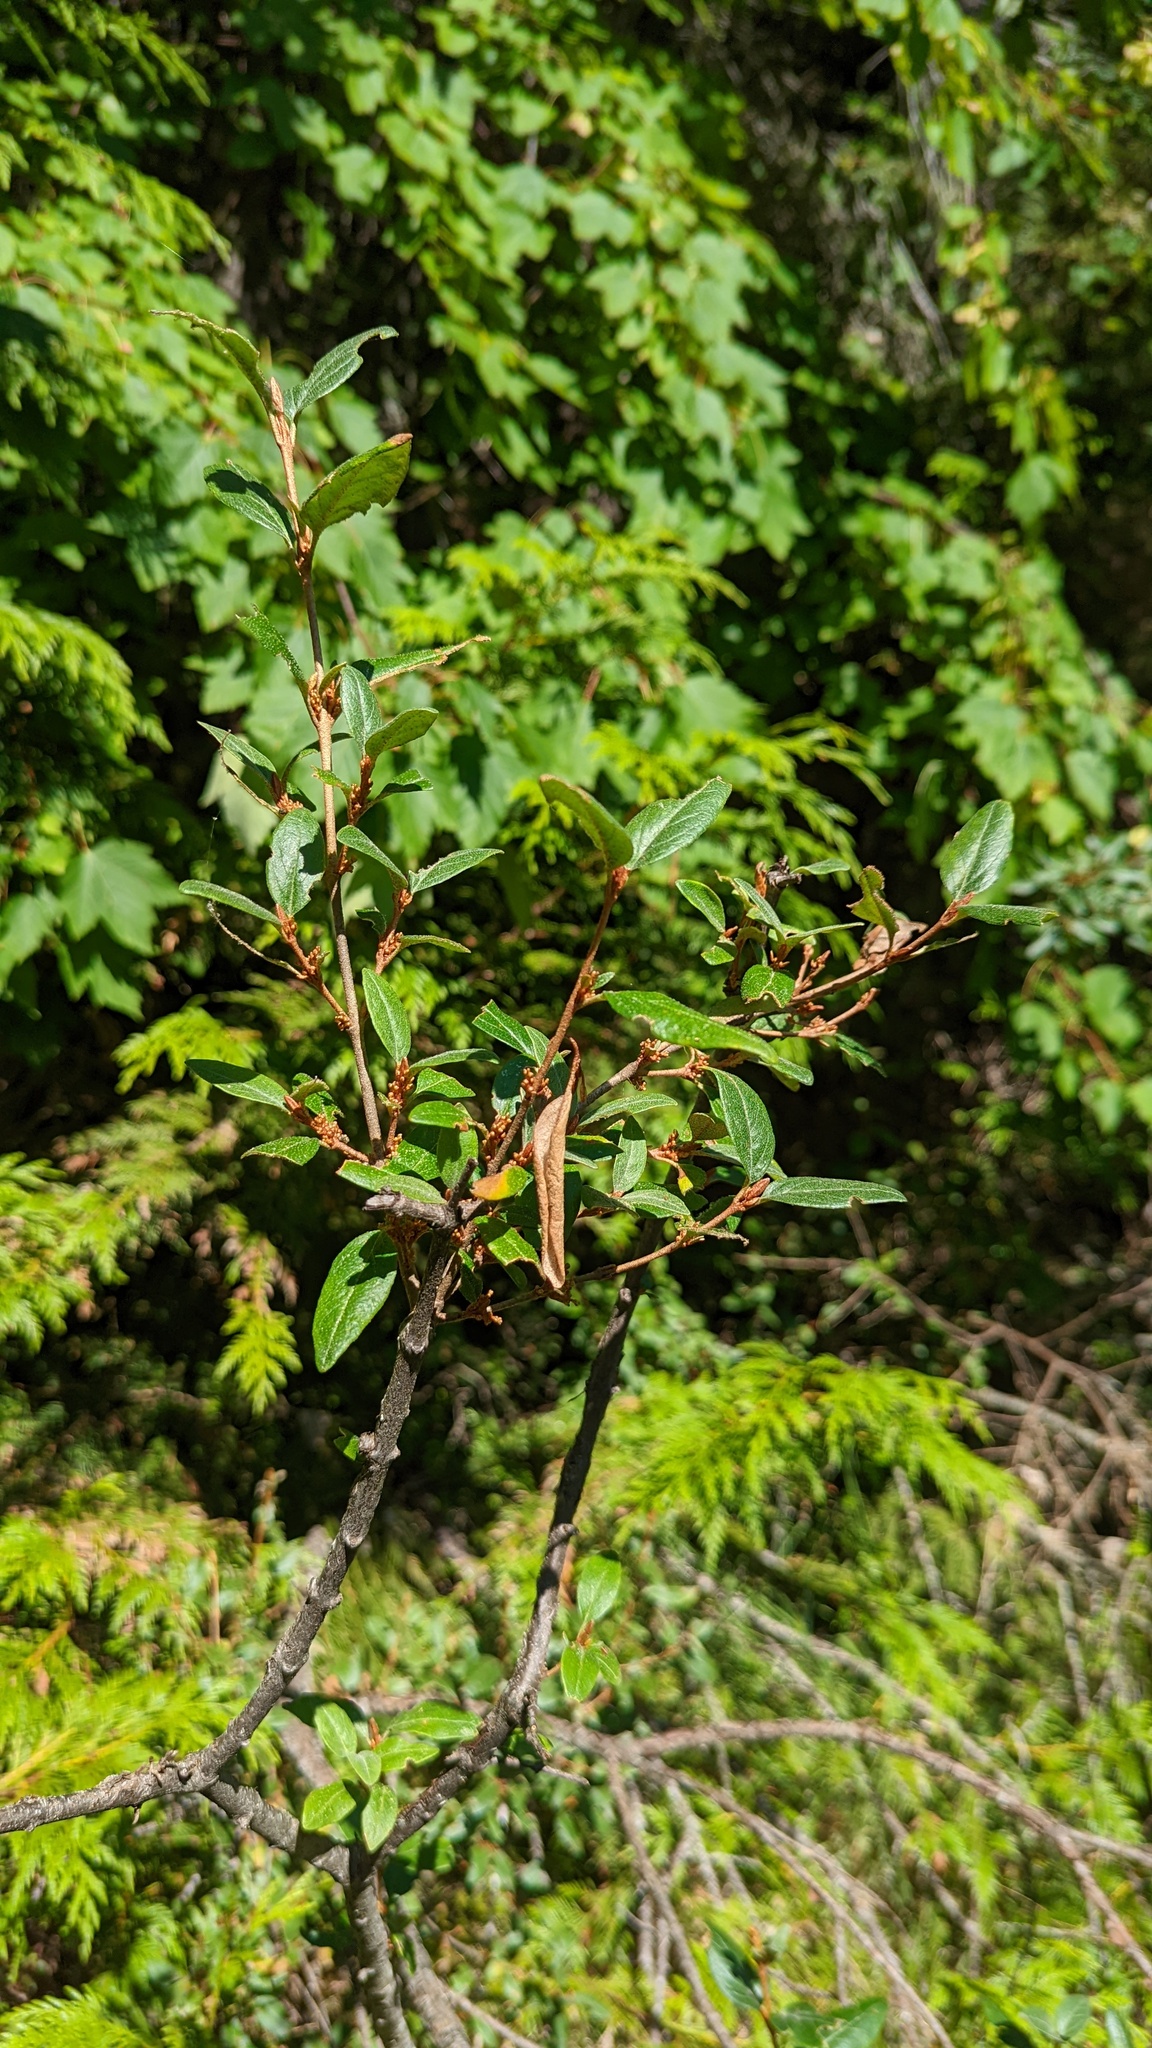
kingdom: Plantae
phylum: Tracheophyta
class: Magnoliopsida
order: Rosales
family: Elaeagnaceae
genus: Shepherdia
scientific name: Shepherdia canadensis
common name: Soapberry
